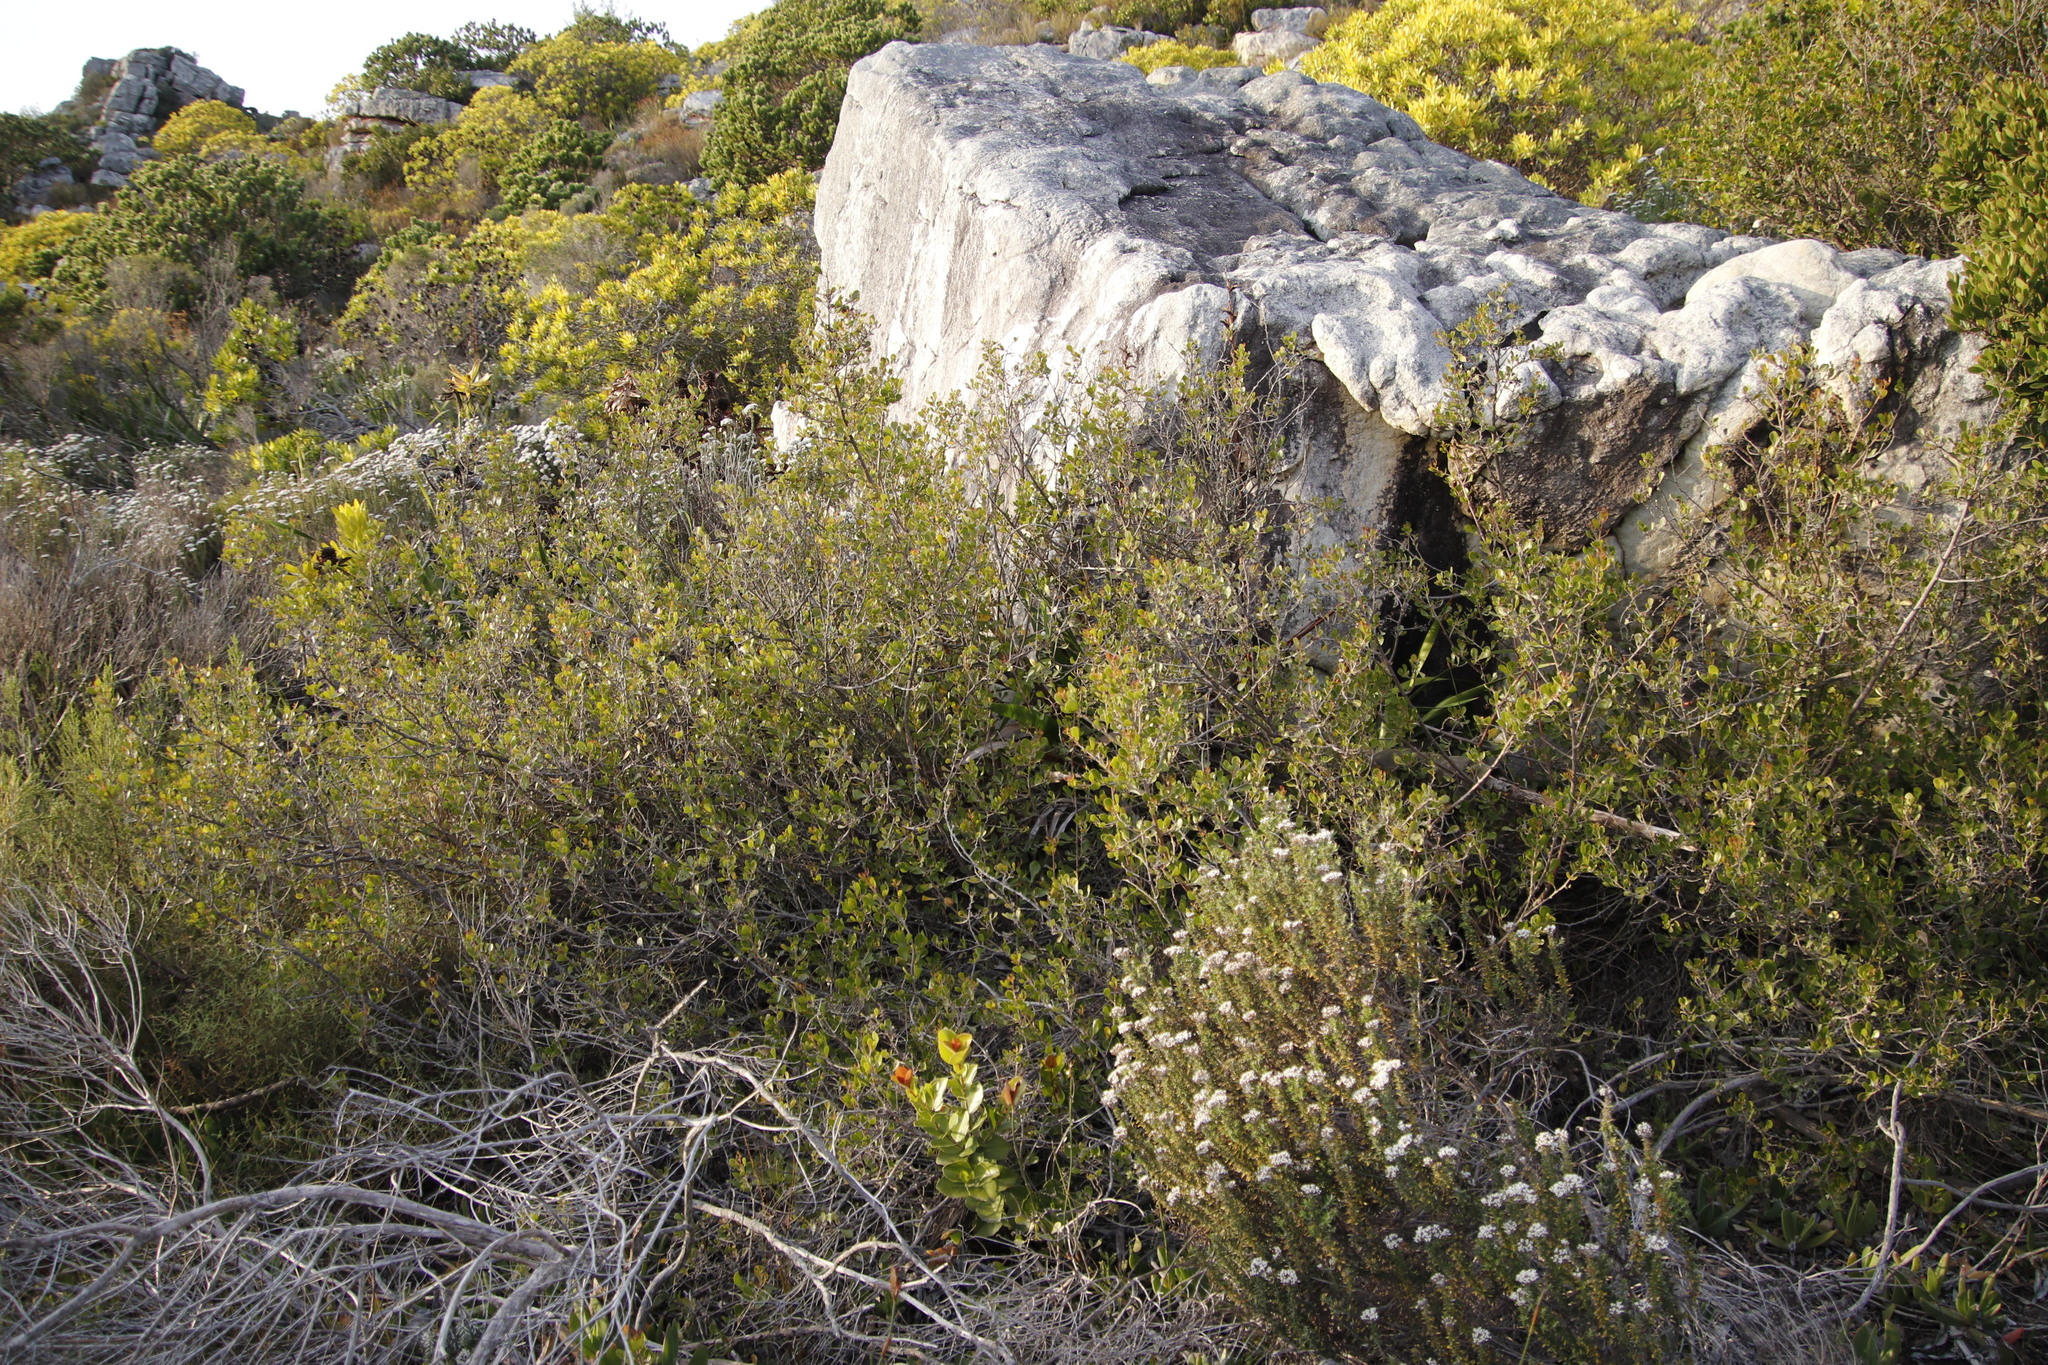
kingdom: Plantae
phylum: Tracheophyta
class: Magnoliopsida
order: Sapindales
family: Anacardiaceae
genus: Searsia
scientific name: Searsia lucida
